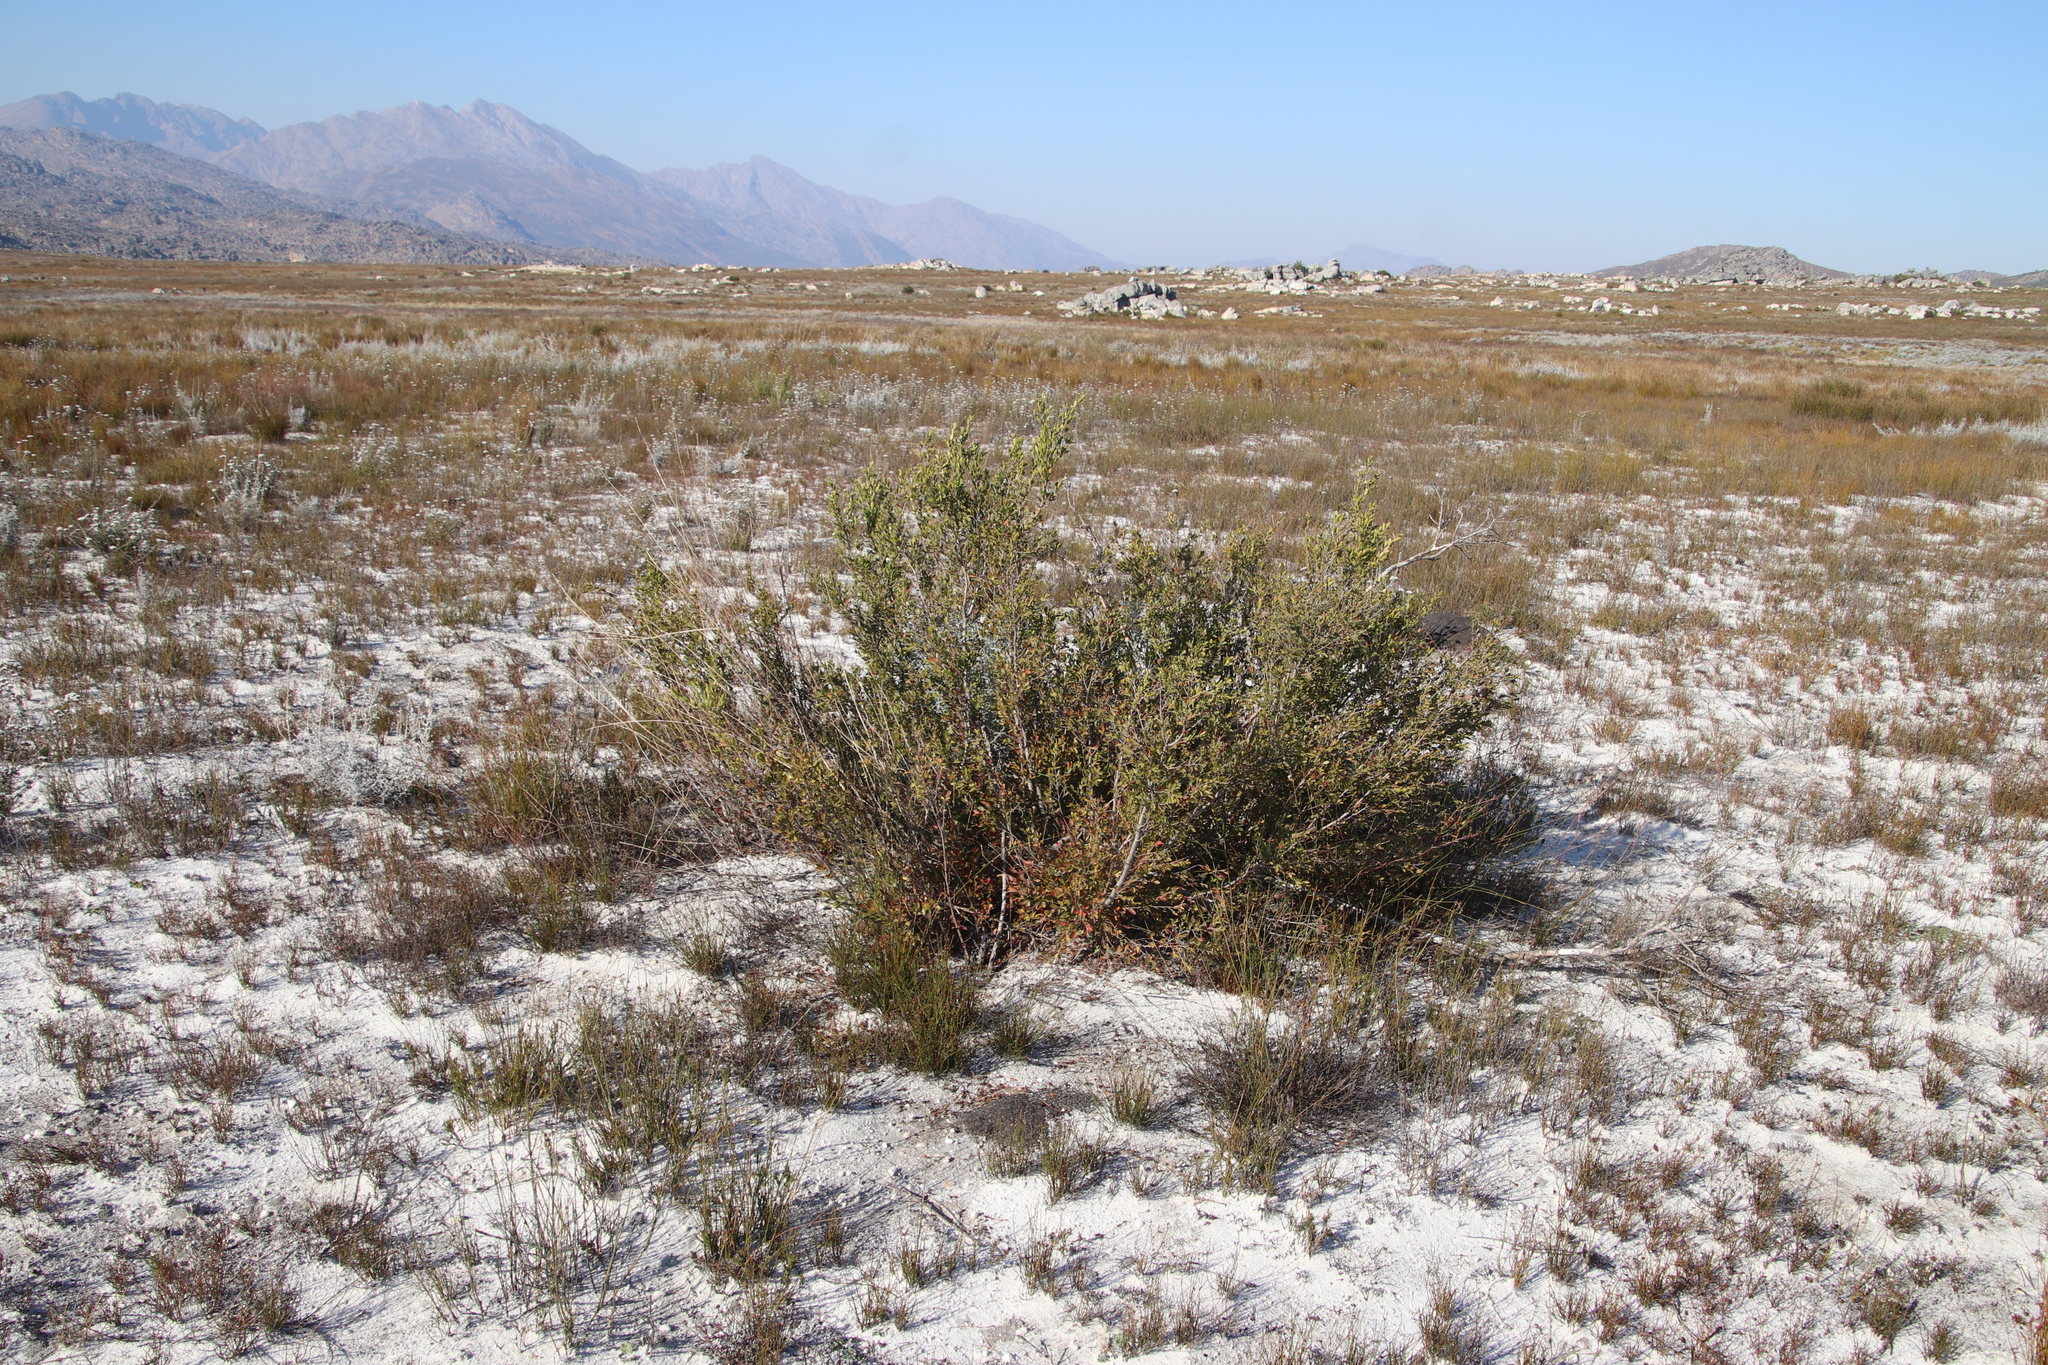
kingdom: Plantae
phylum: Tracheophyta
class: Magnoliopsida
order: Ericales
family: Ebenaceae
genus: Diospyros
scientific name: Diospyros glabra
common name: Fynbos star apple
